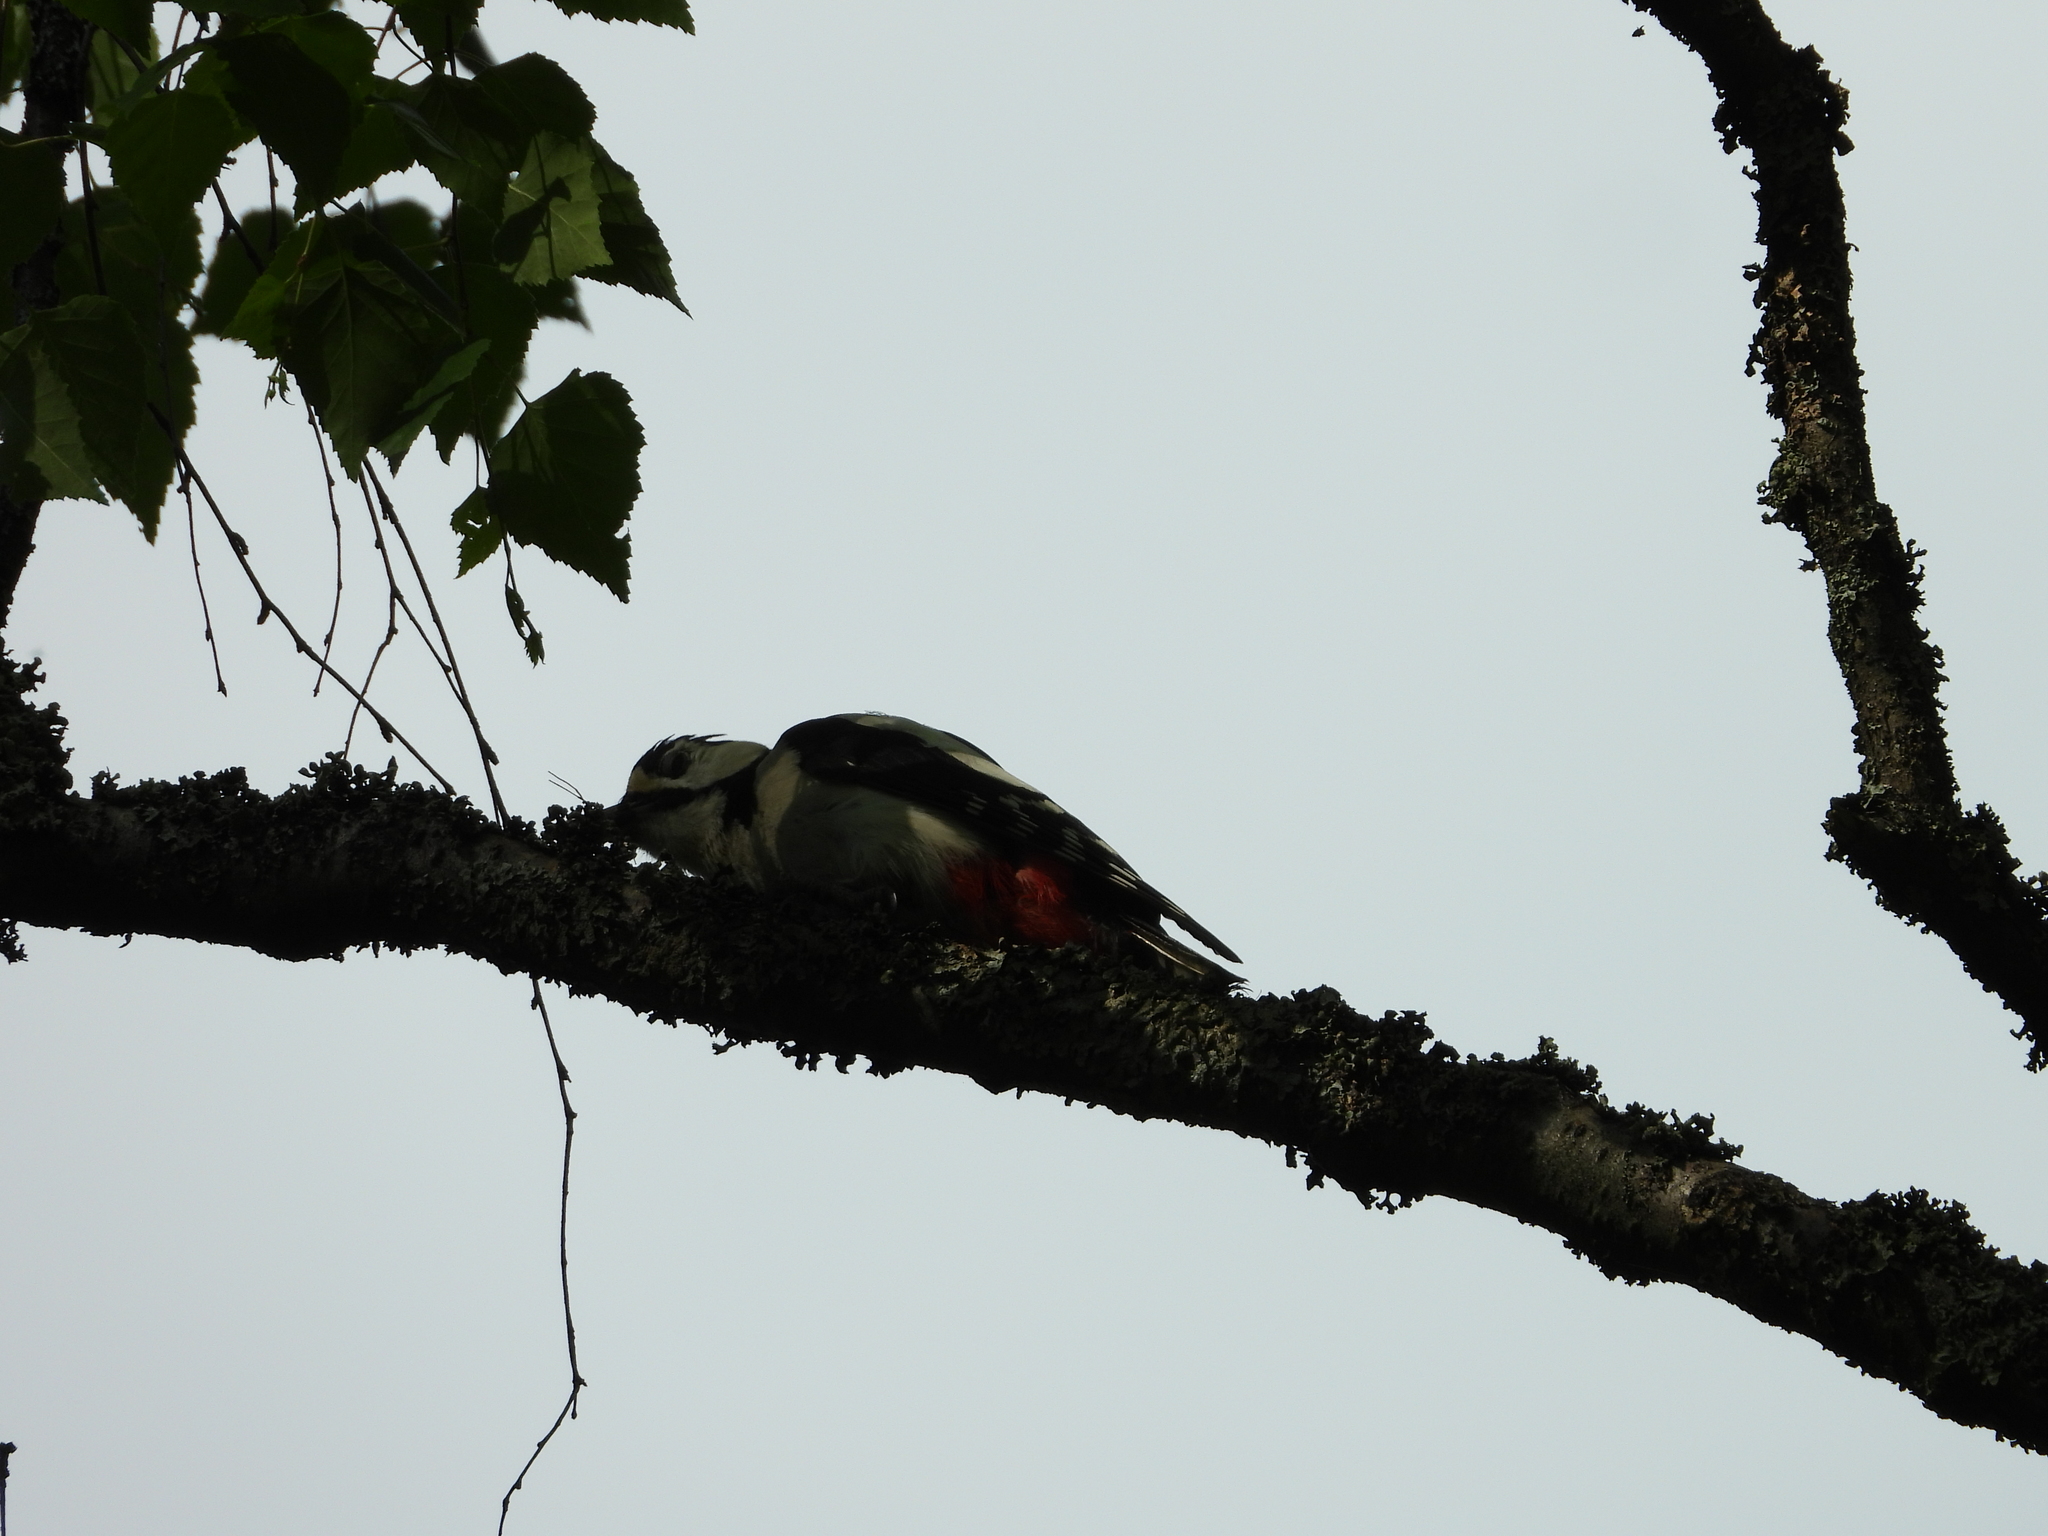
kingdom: Animalia
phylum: Chordata
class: Aves
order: Piciformes
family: Picidae
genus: Dendrocopos
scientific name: Dendrocopos major
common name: Great spotted woodpecker
